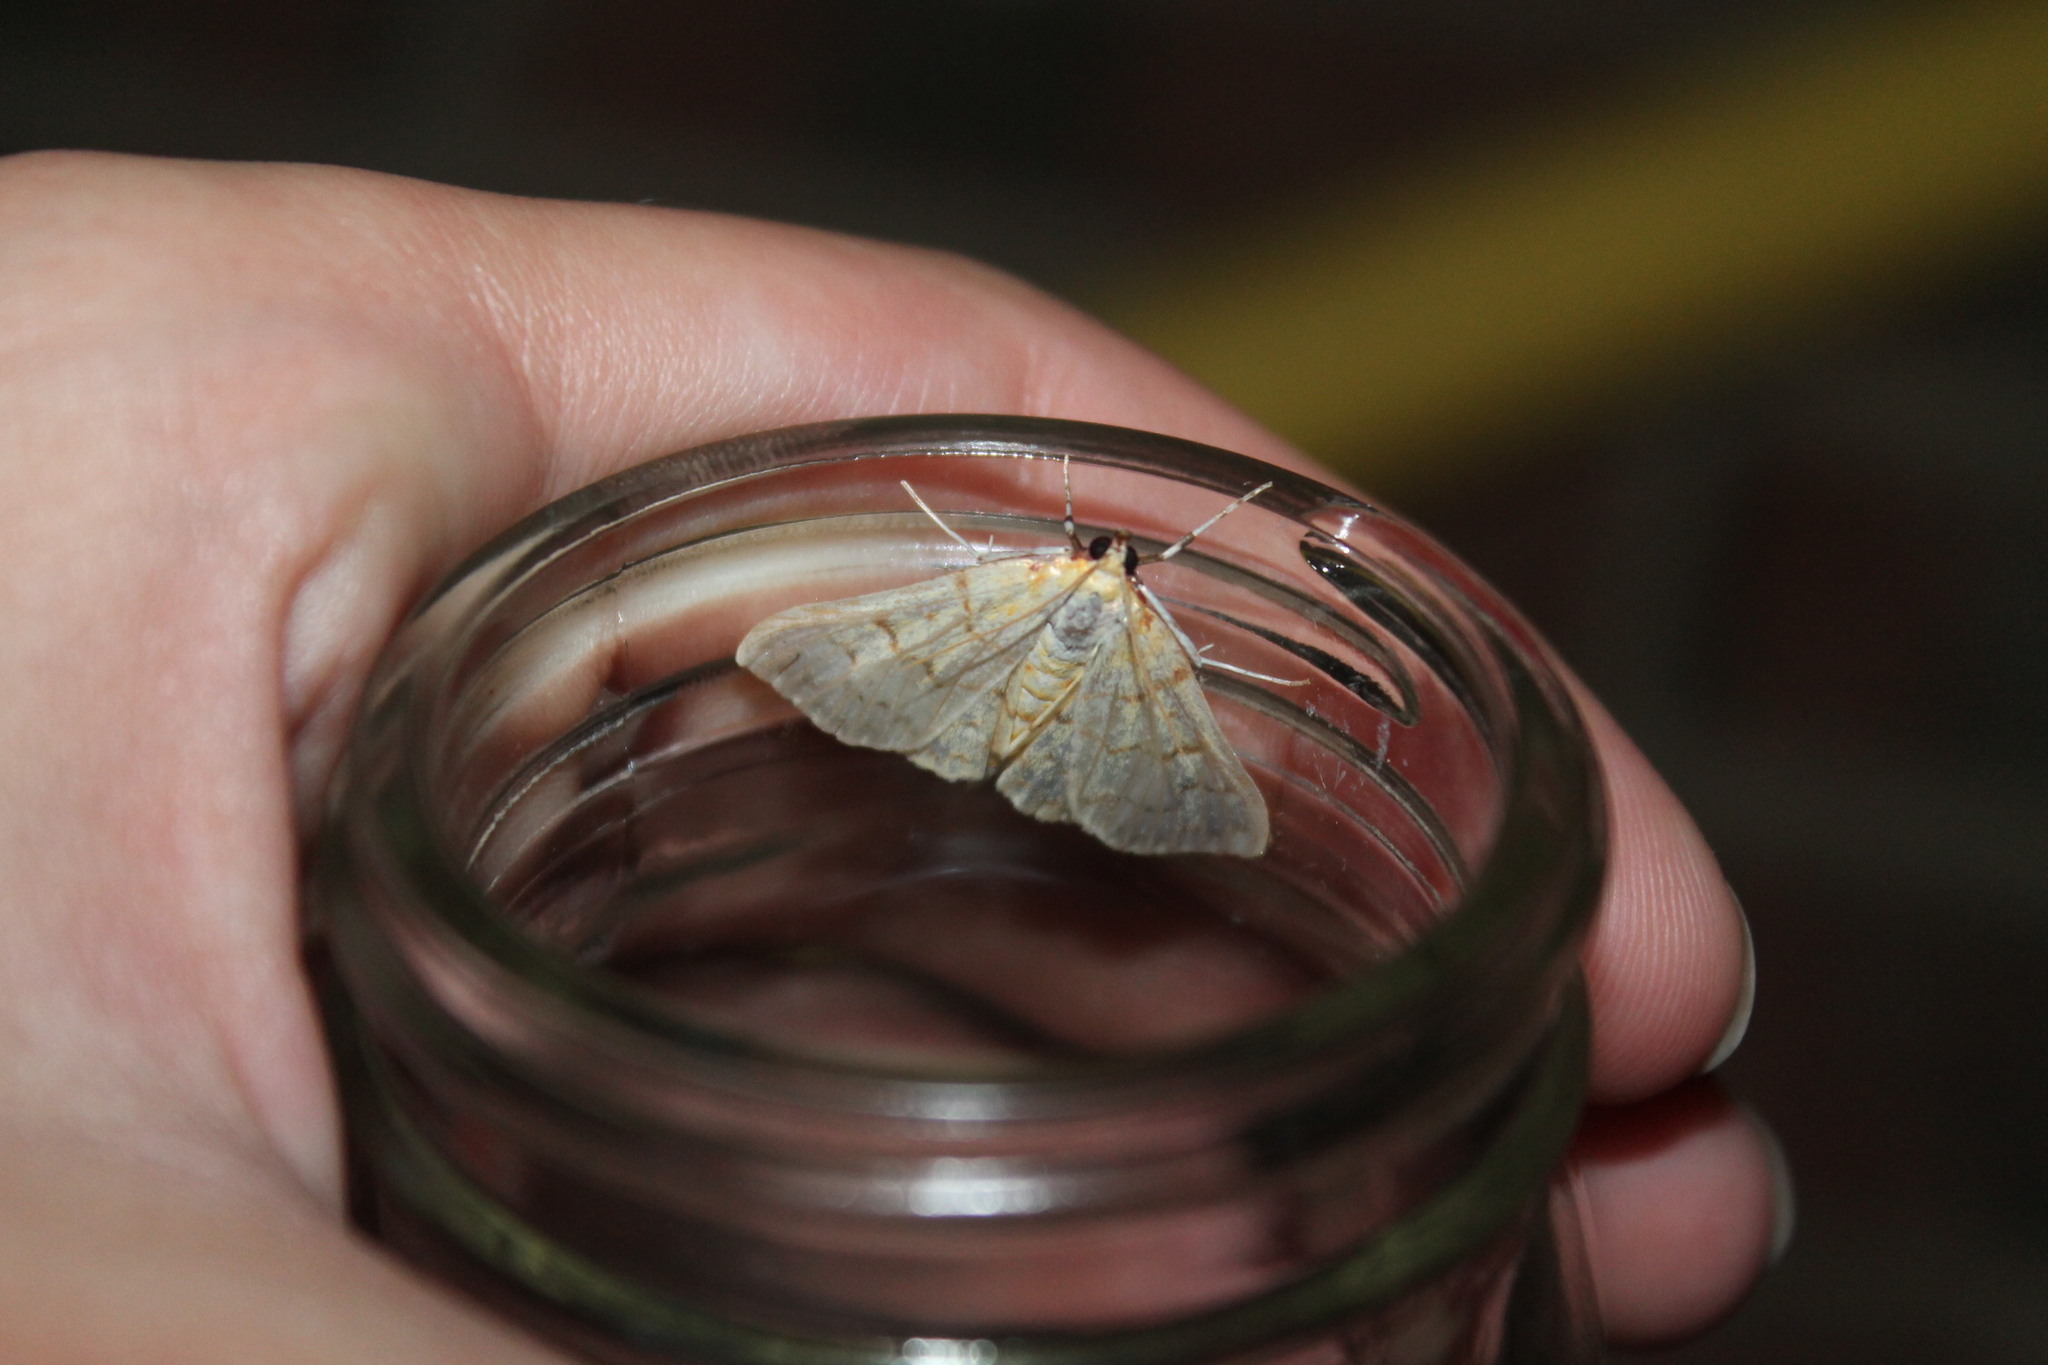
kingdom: Animalia
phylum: Arthropoda
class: Insecta
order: Lepidoptera
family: Crambidae
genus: Polygrammodes
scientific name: Polygrammodes flavidalis
